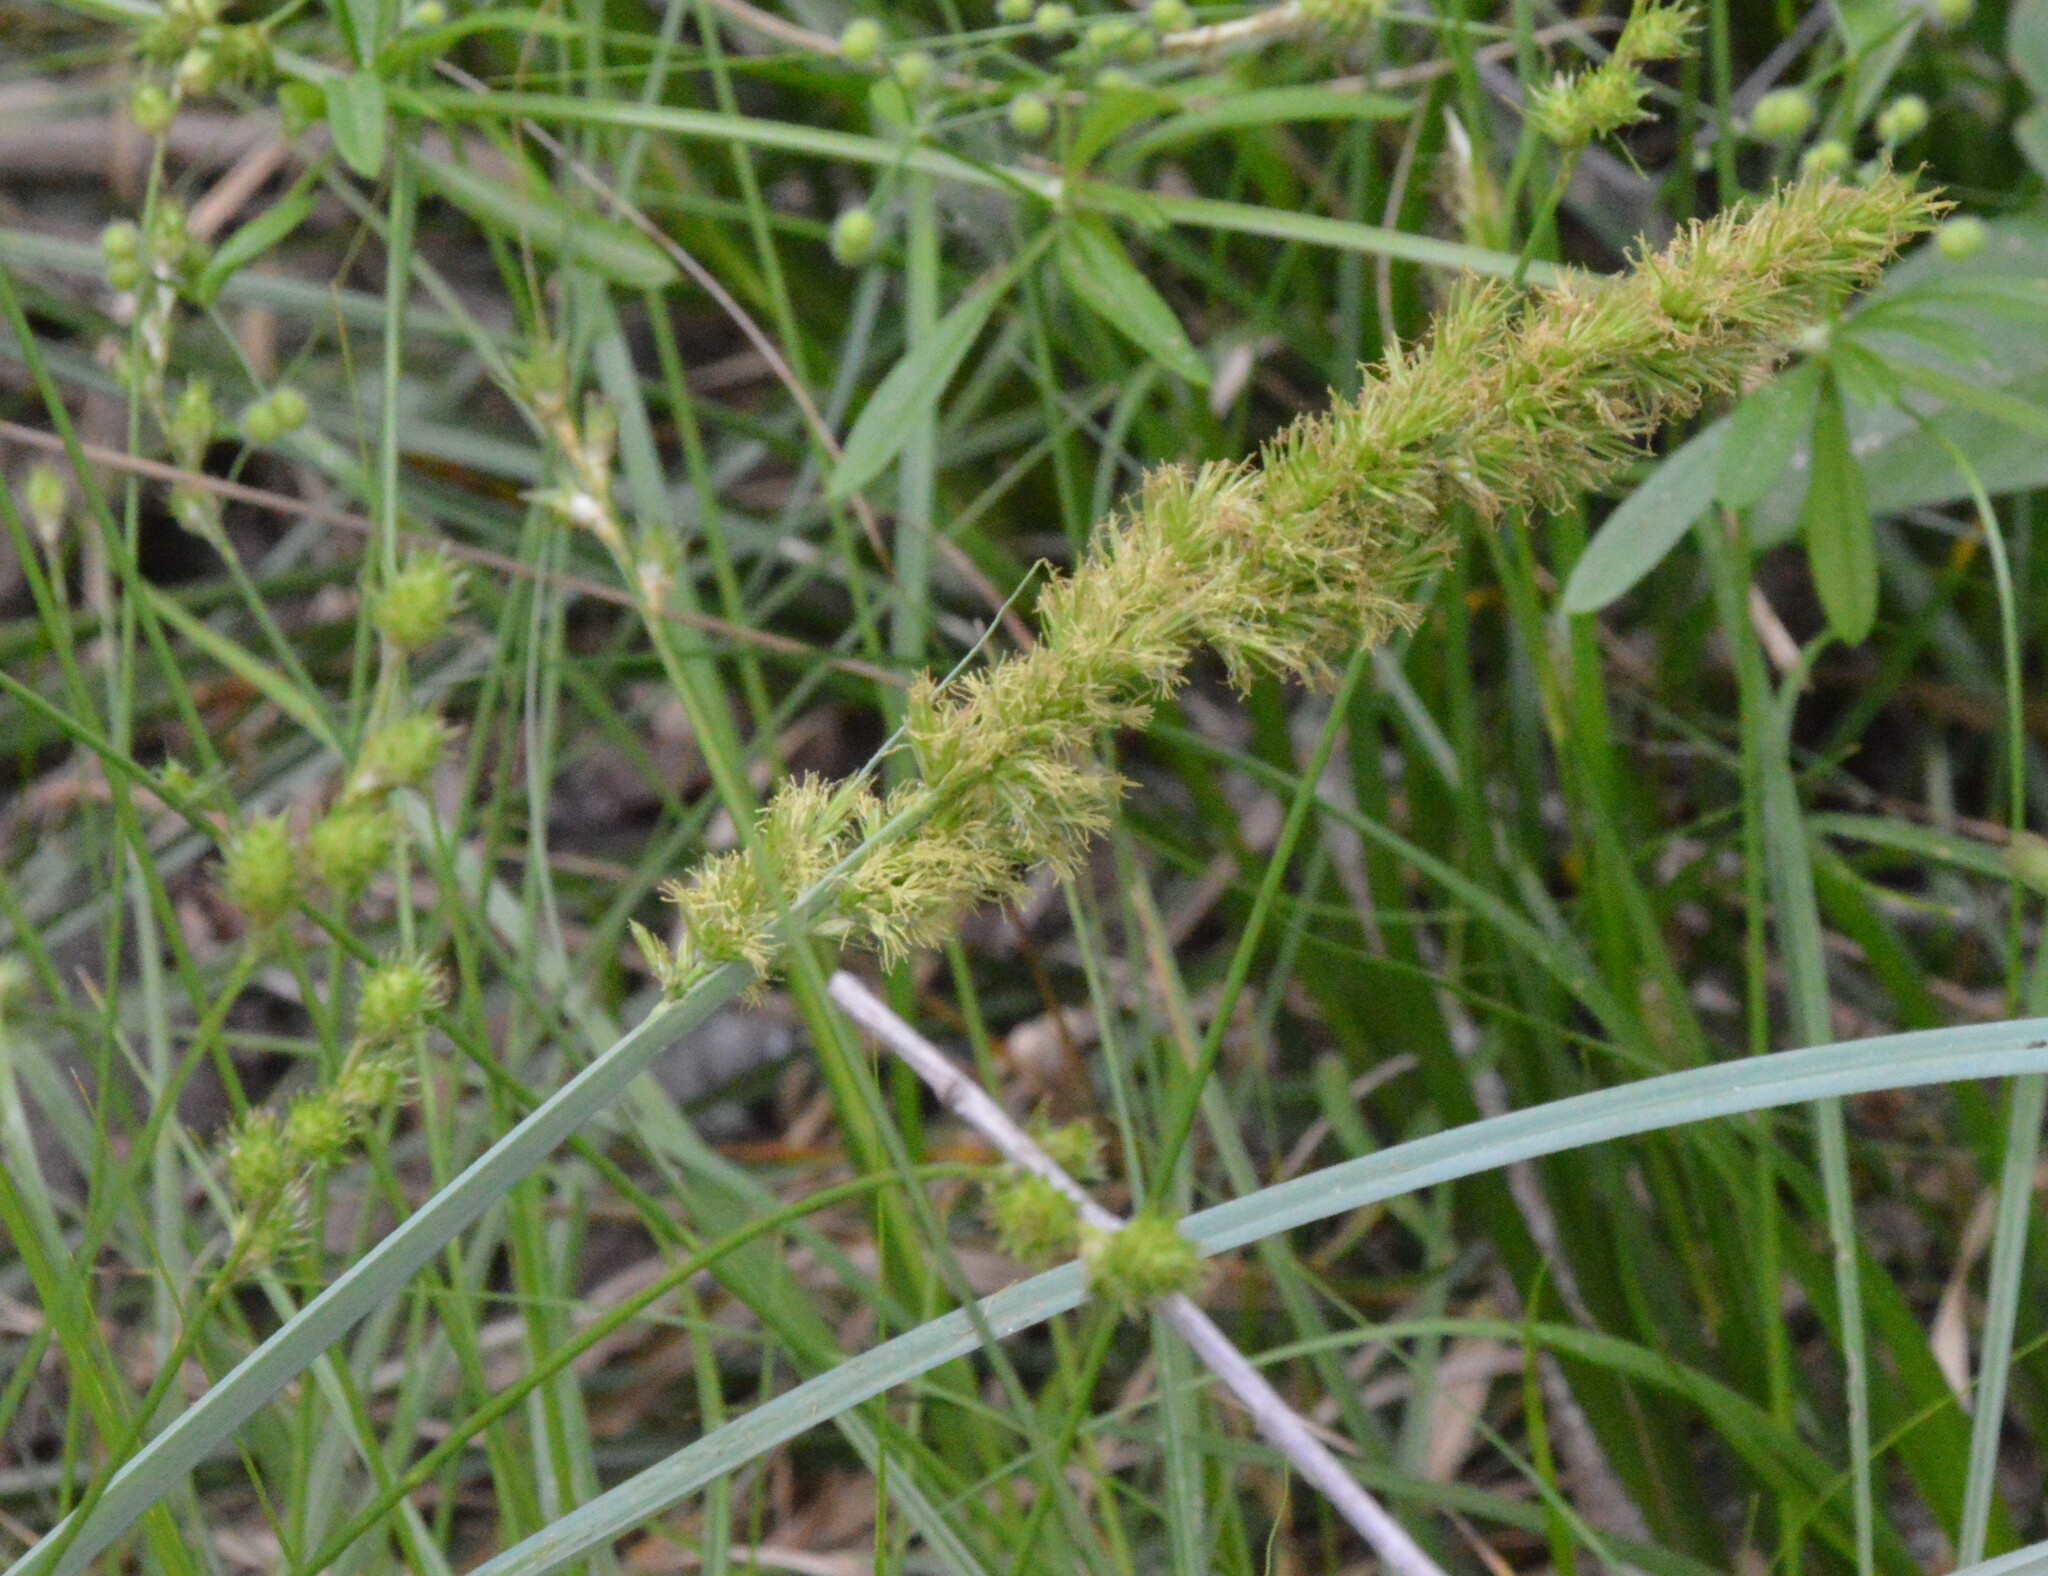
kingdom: Plantae
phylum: Tracheophyta
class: Liliopsida
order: Poales
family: Cyperaceae
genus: Carex
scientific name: Carex crus-corvi
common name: Crow-spur sedge
